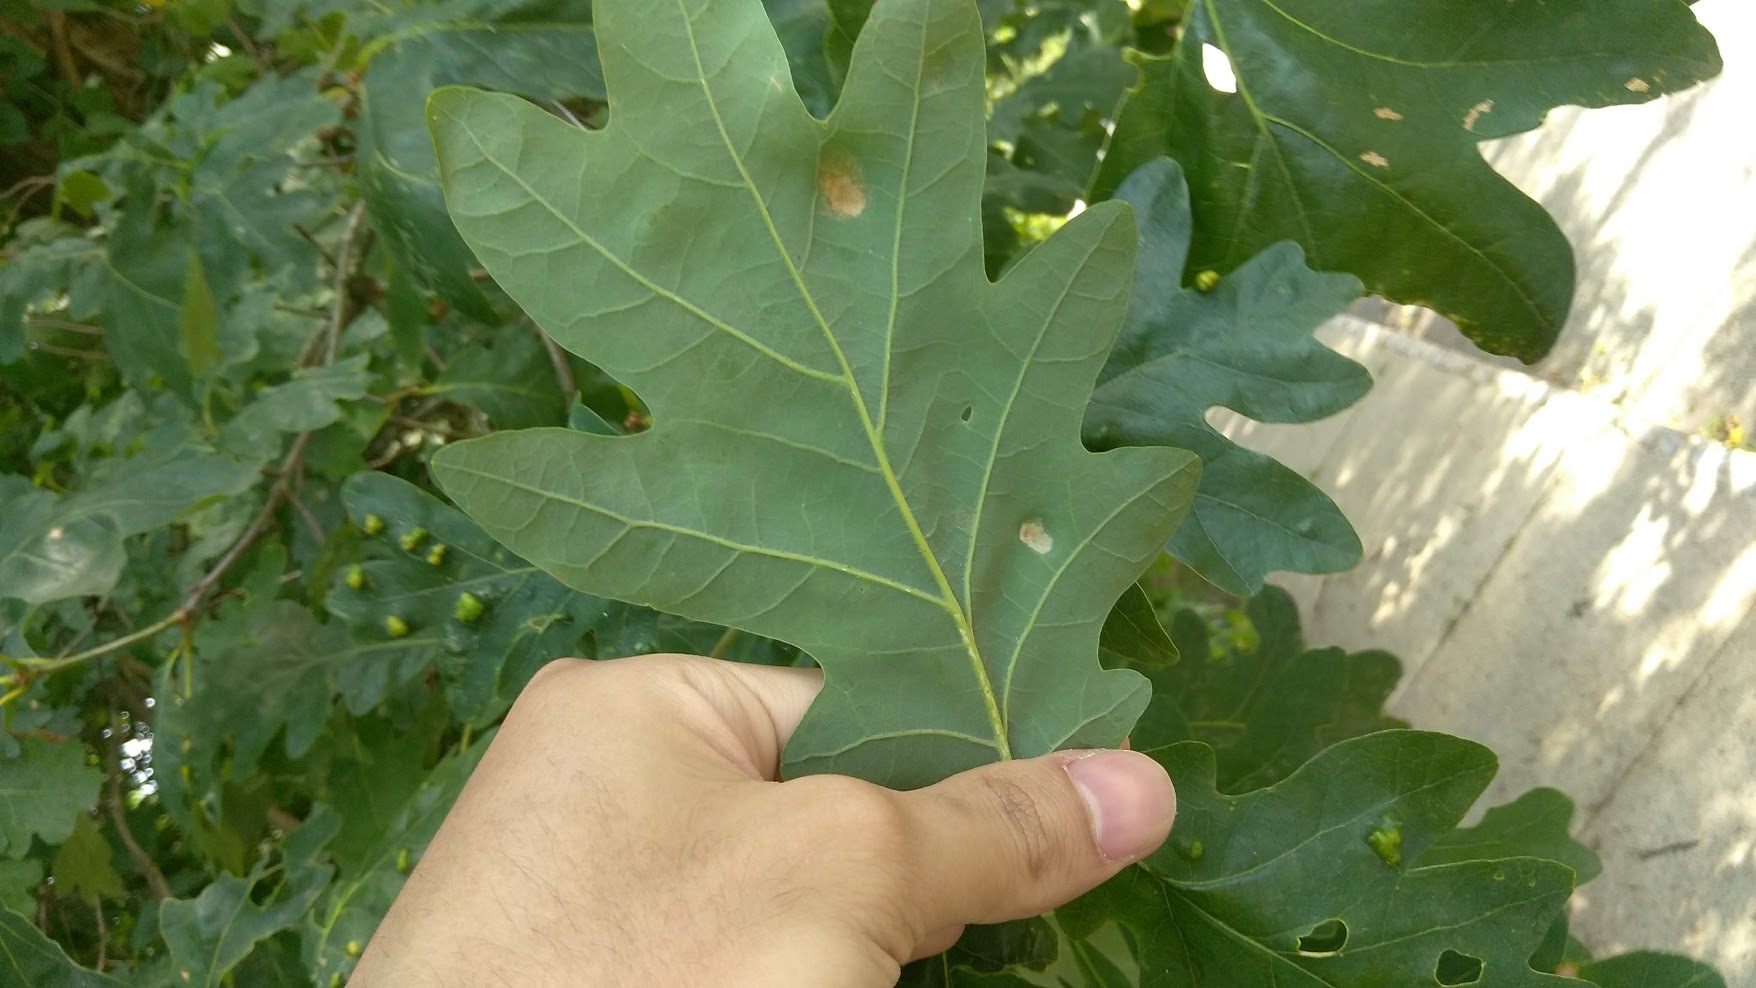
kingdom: Animalia
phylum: Arthropoda
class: Arachnida
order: Trombidiformes
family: Eriophyidae
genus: Aceria
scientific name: Aceria
